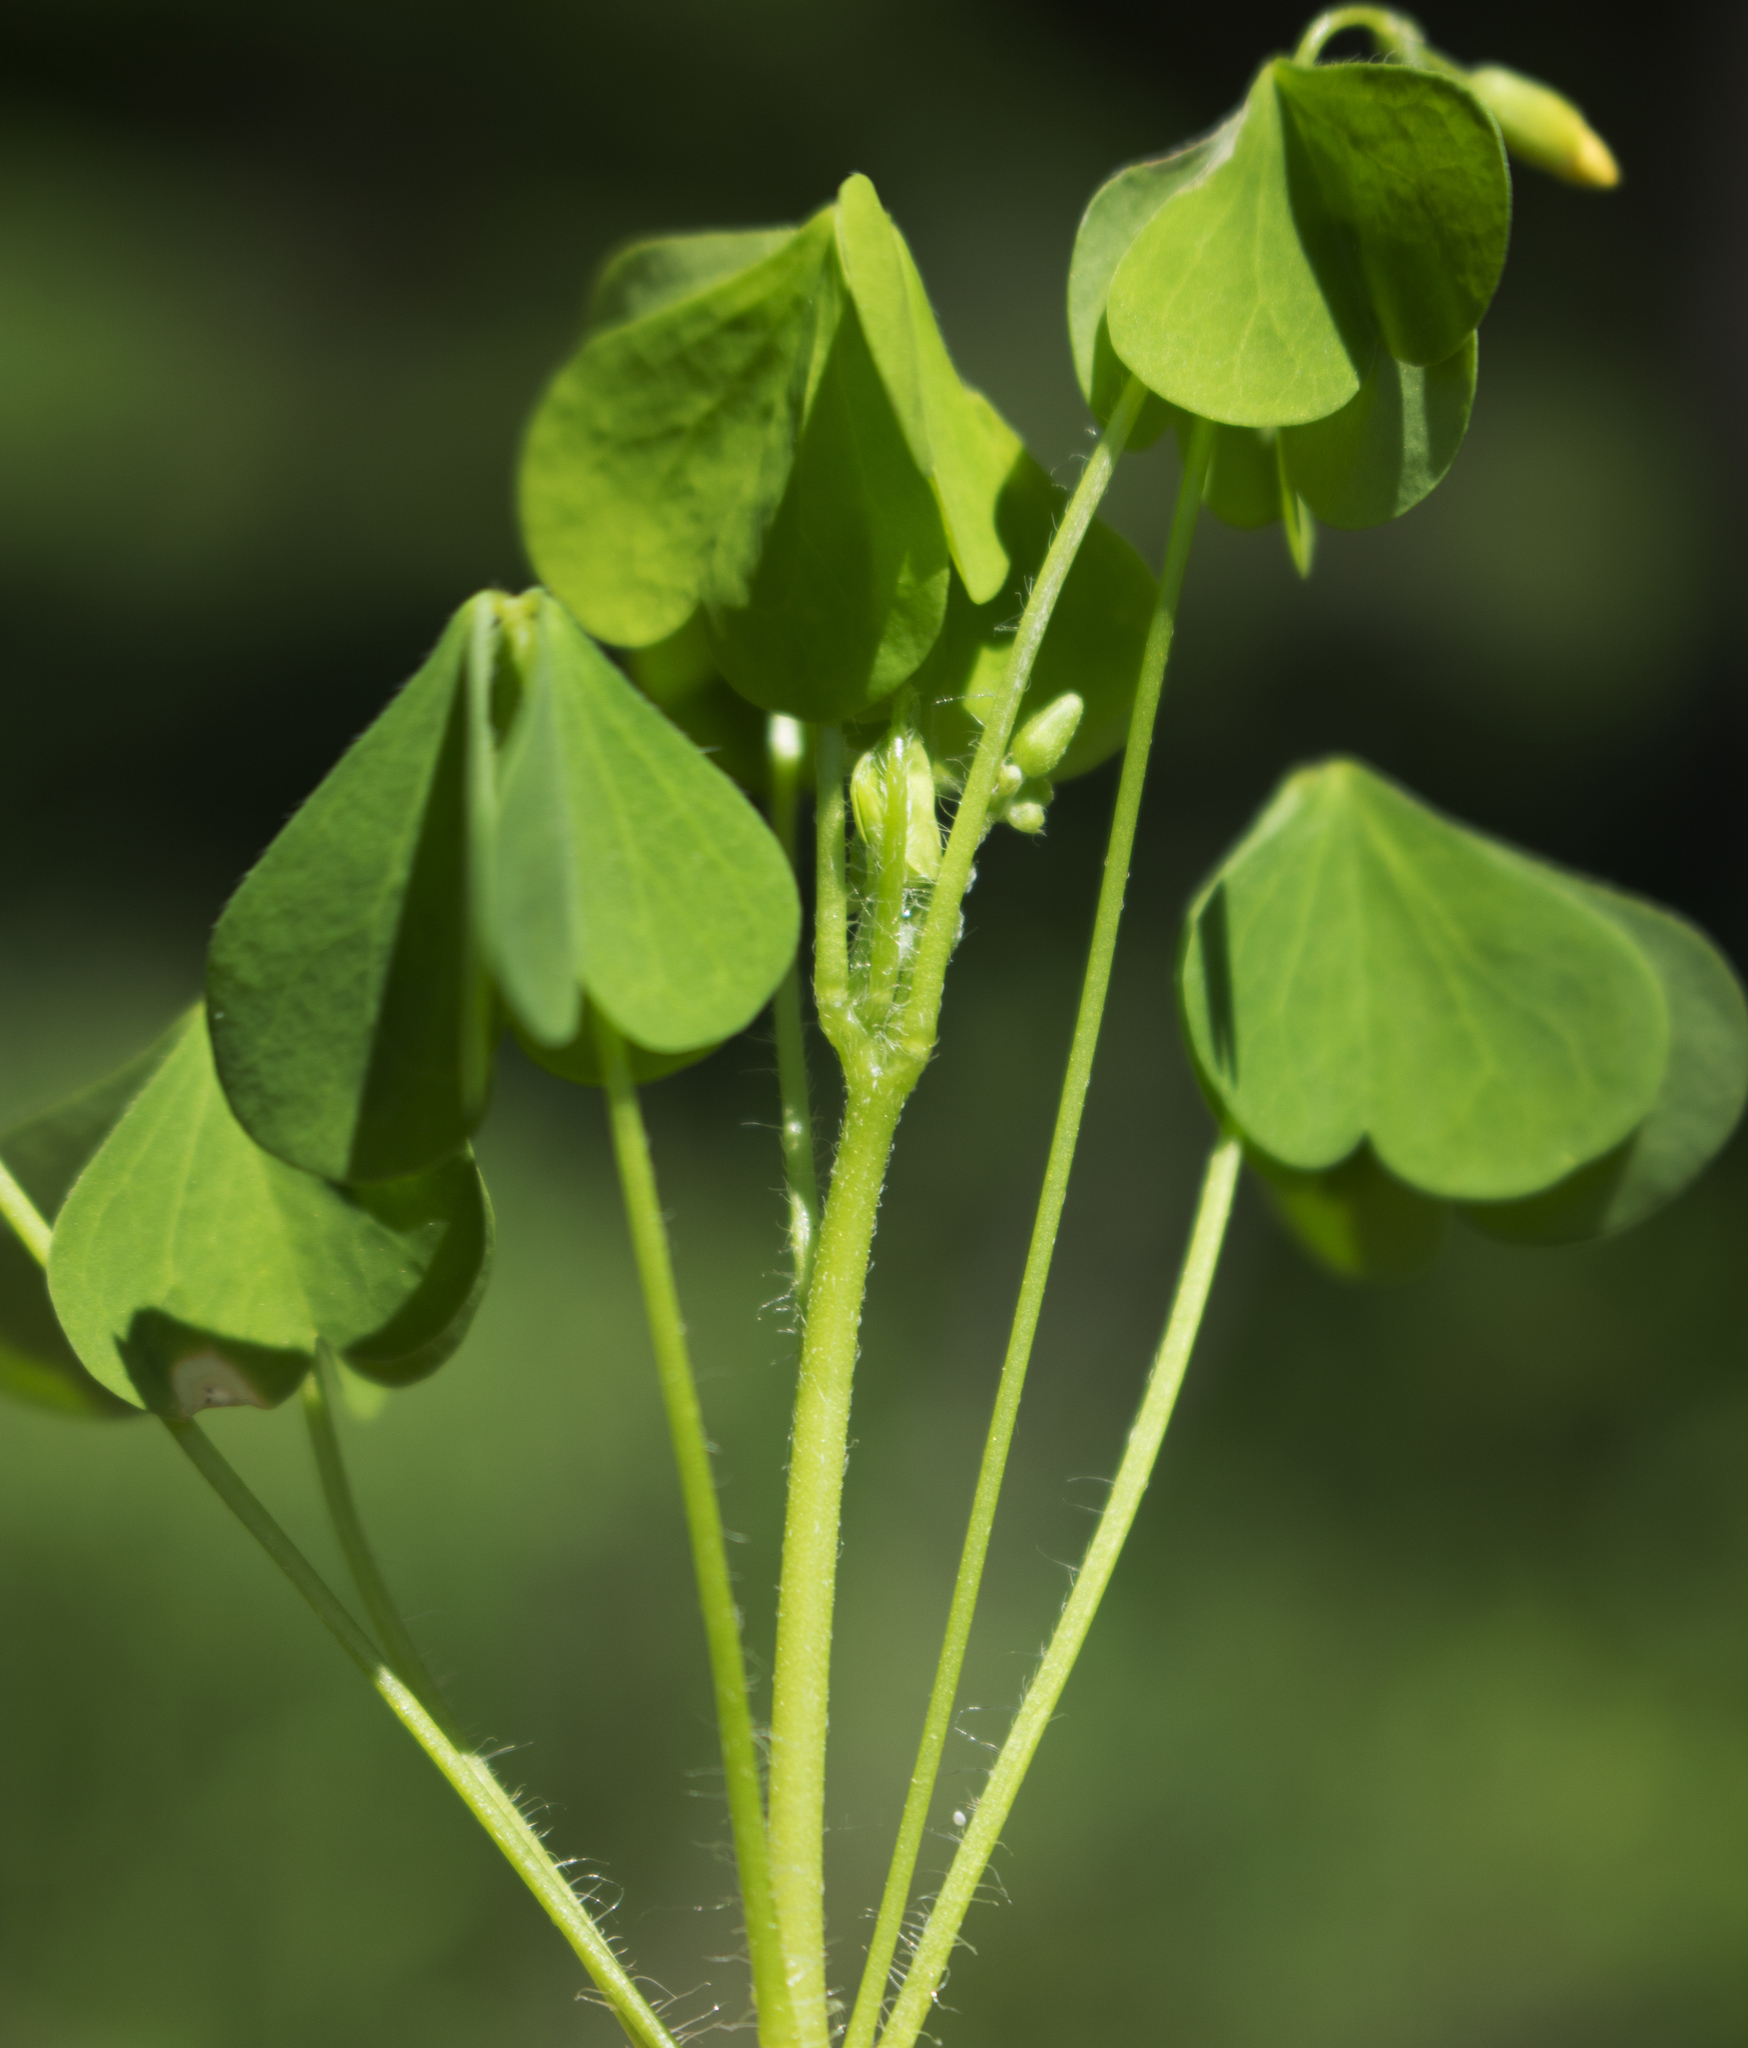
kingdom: Plantae
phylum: Tracheophyta
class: Magnoliopsida
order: Oxalidales
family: Oxalidaceae
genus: Oxalis
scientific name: Oxalis stricta
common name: Upright yellow-sorrel
